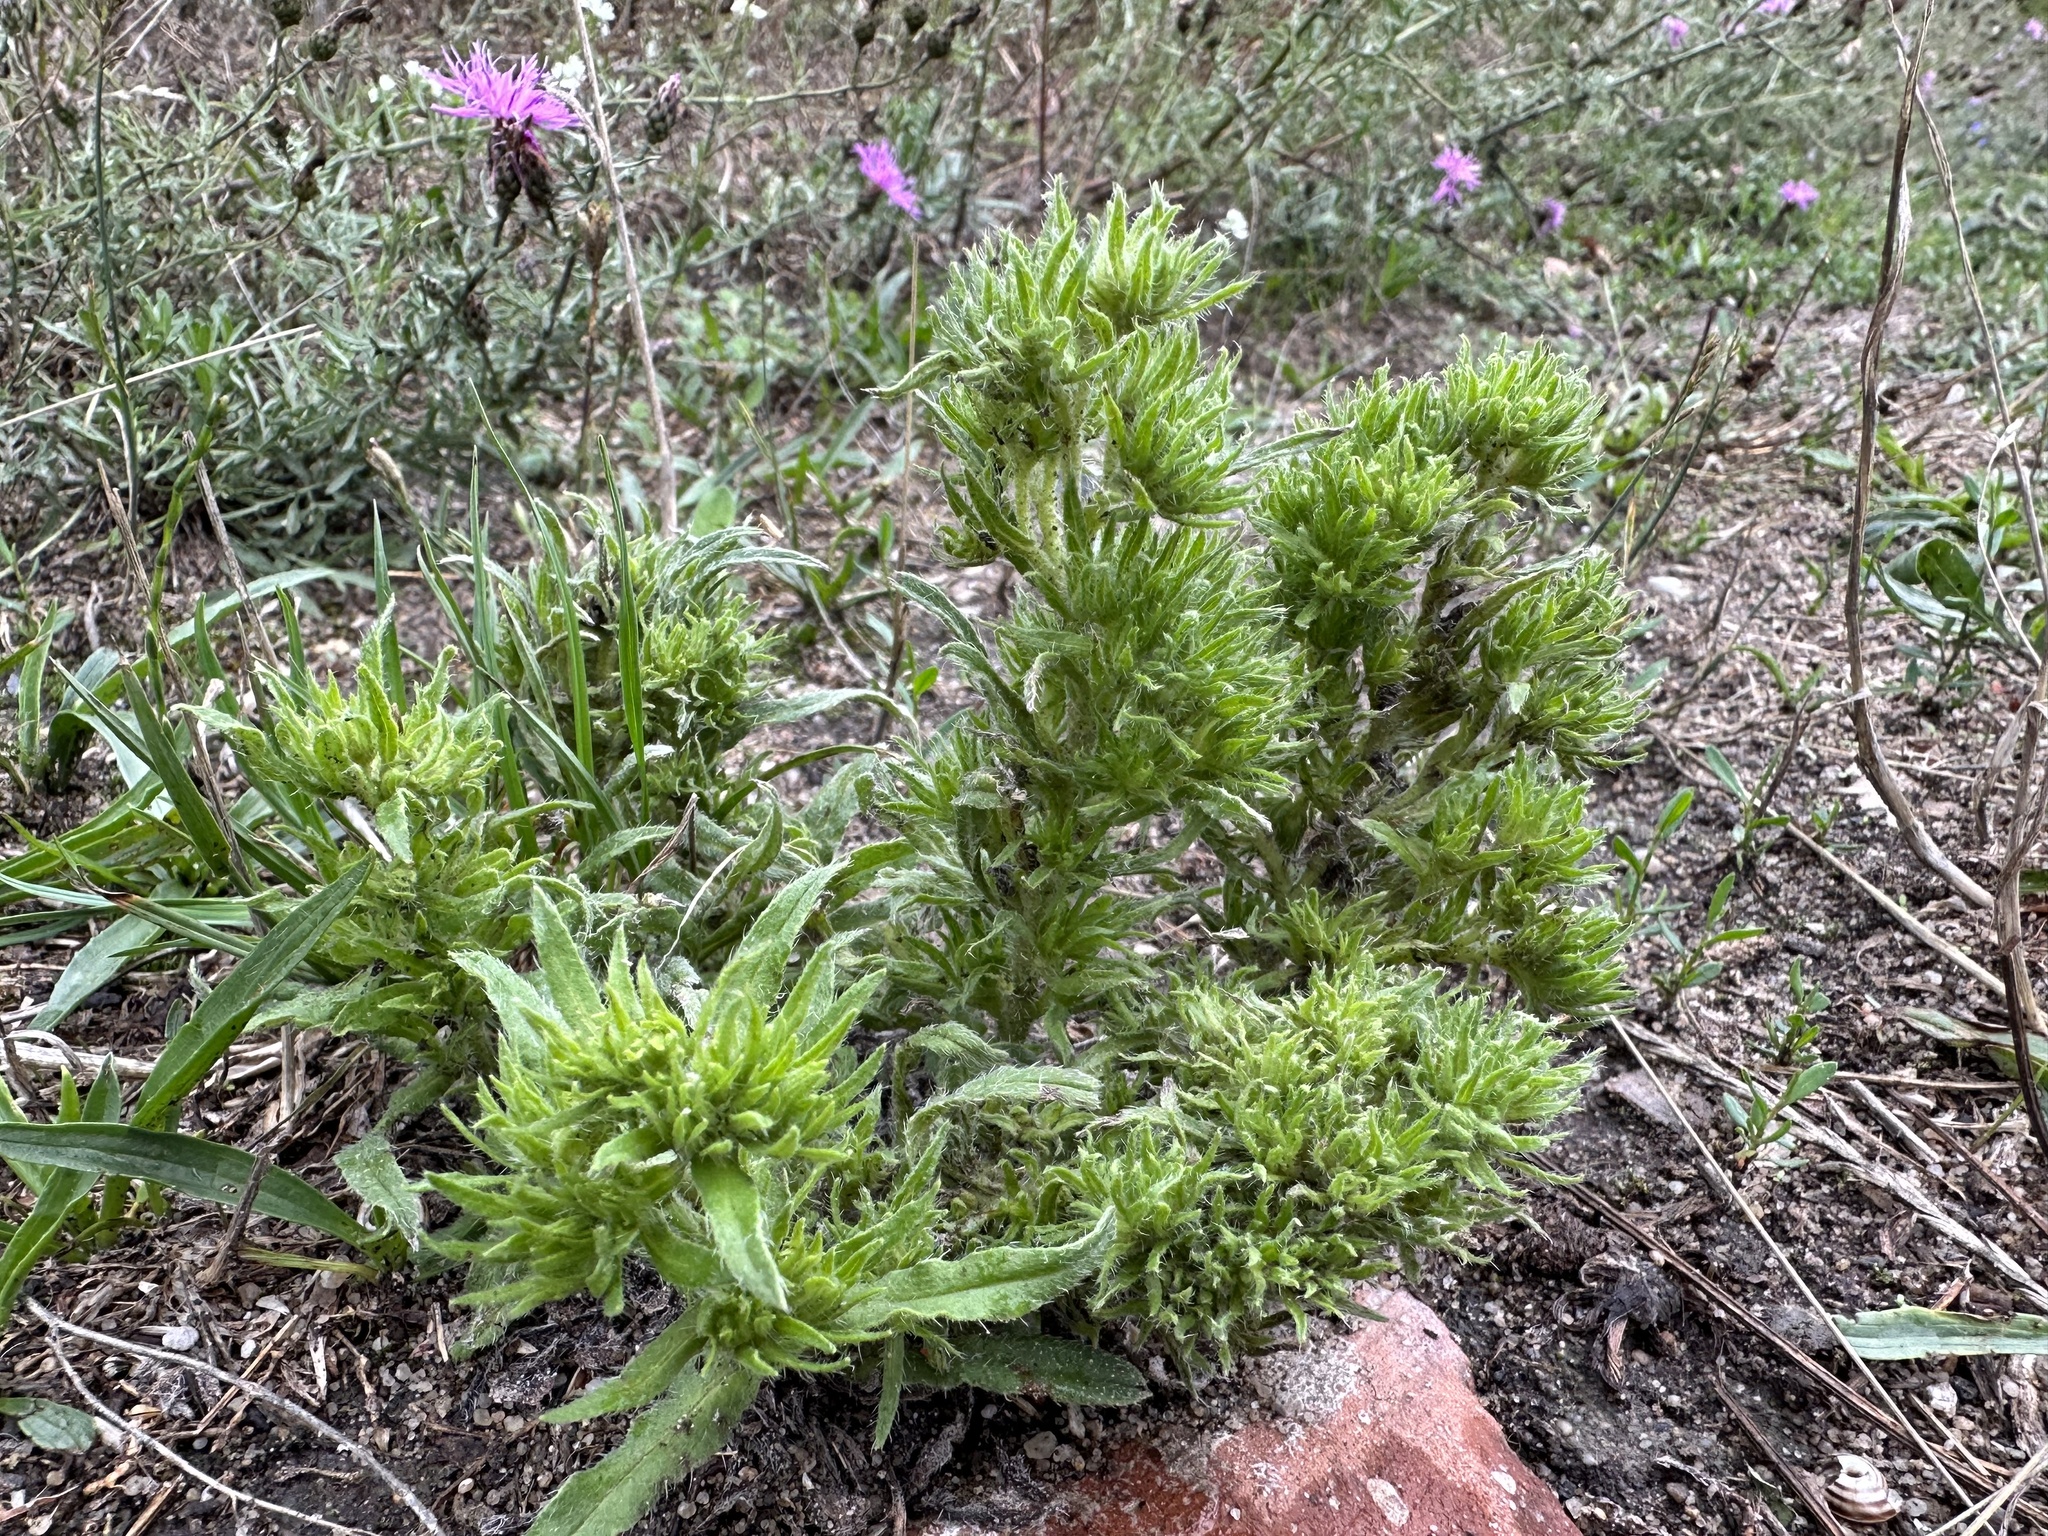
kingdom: Animalia
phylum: Arthropoda
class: Arachnida
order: Trombidiformes
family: Eriophyidae
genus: Aceria
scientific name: Aceria echii
